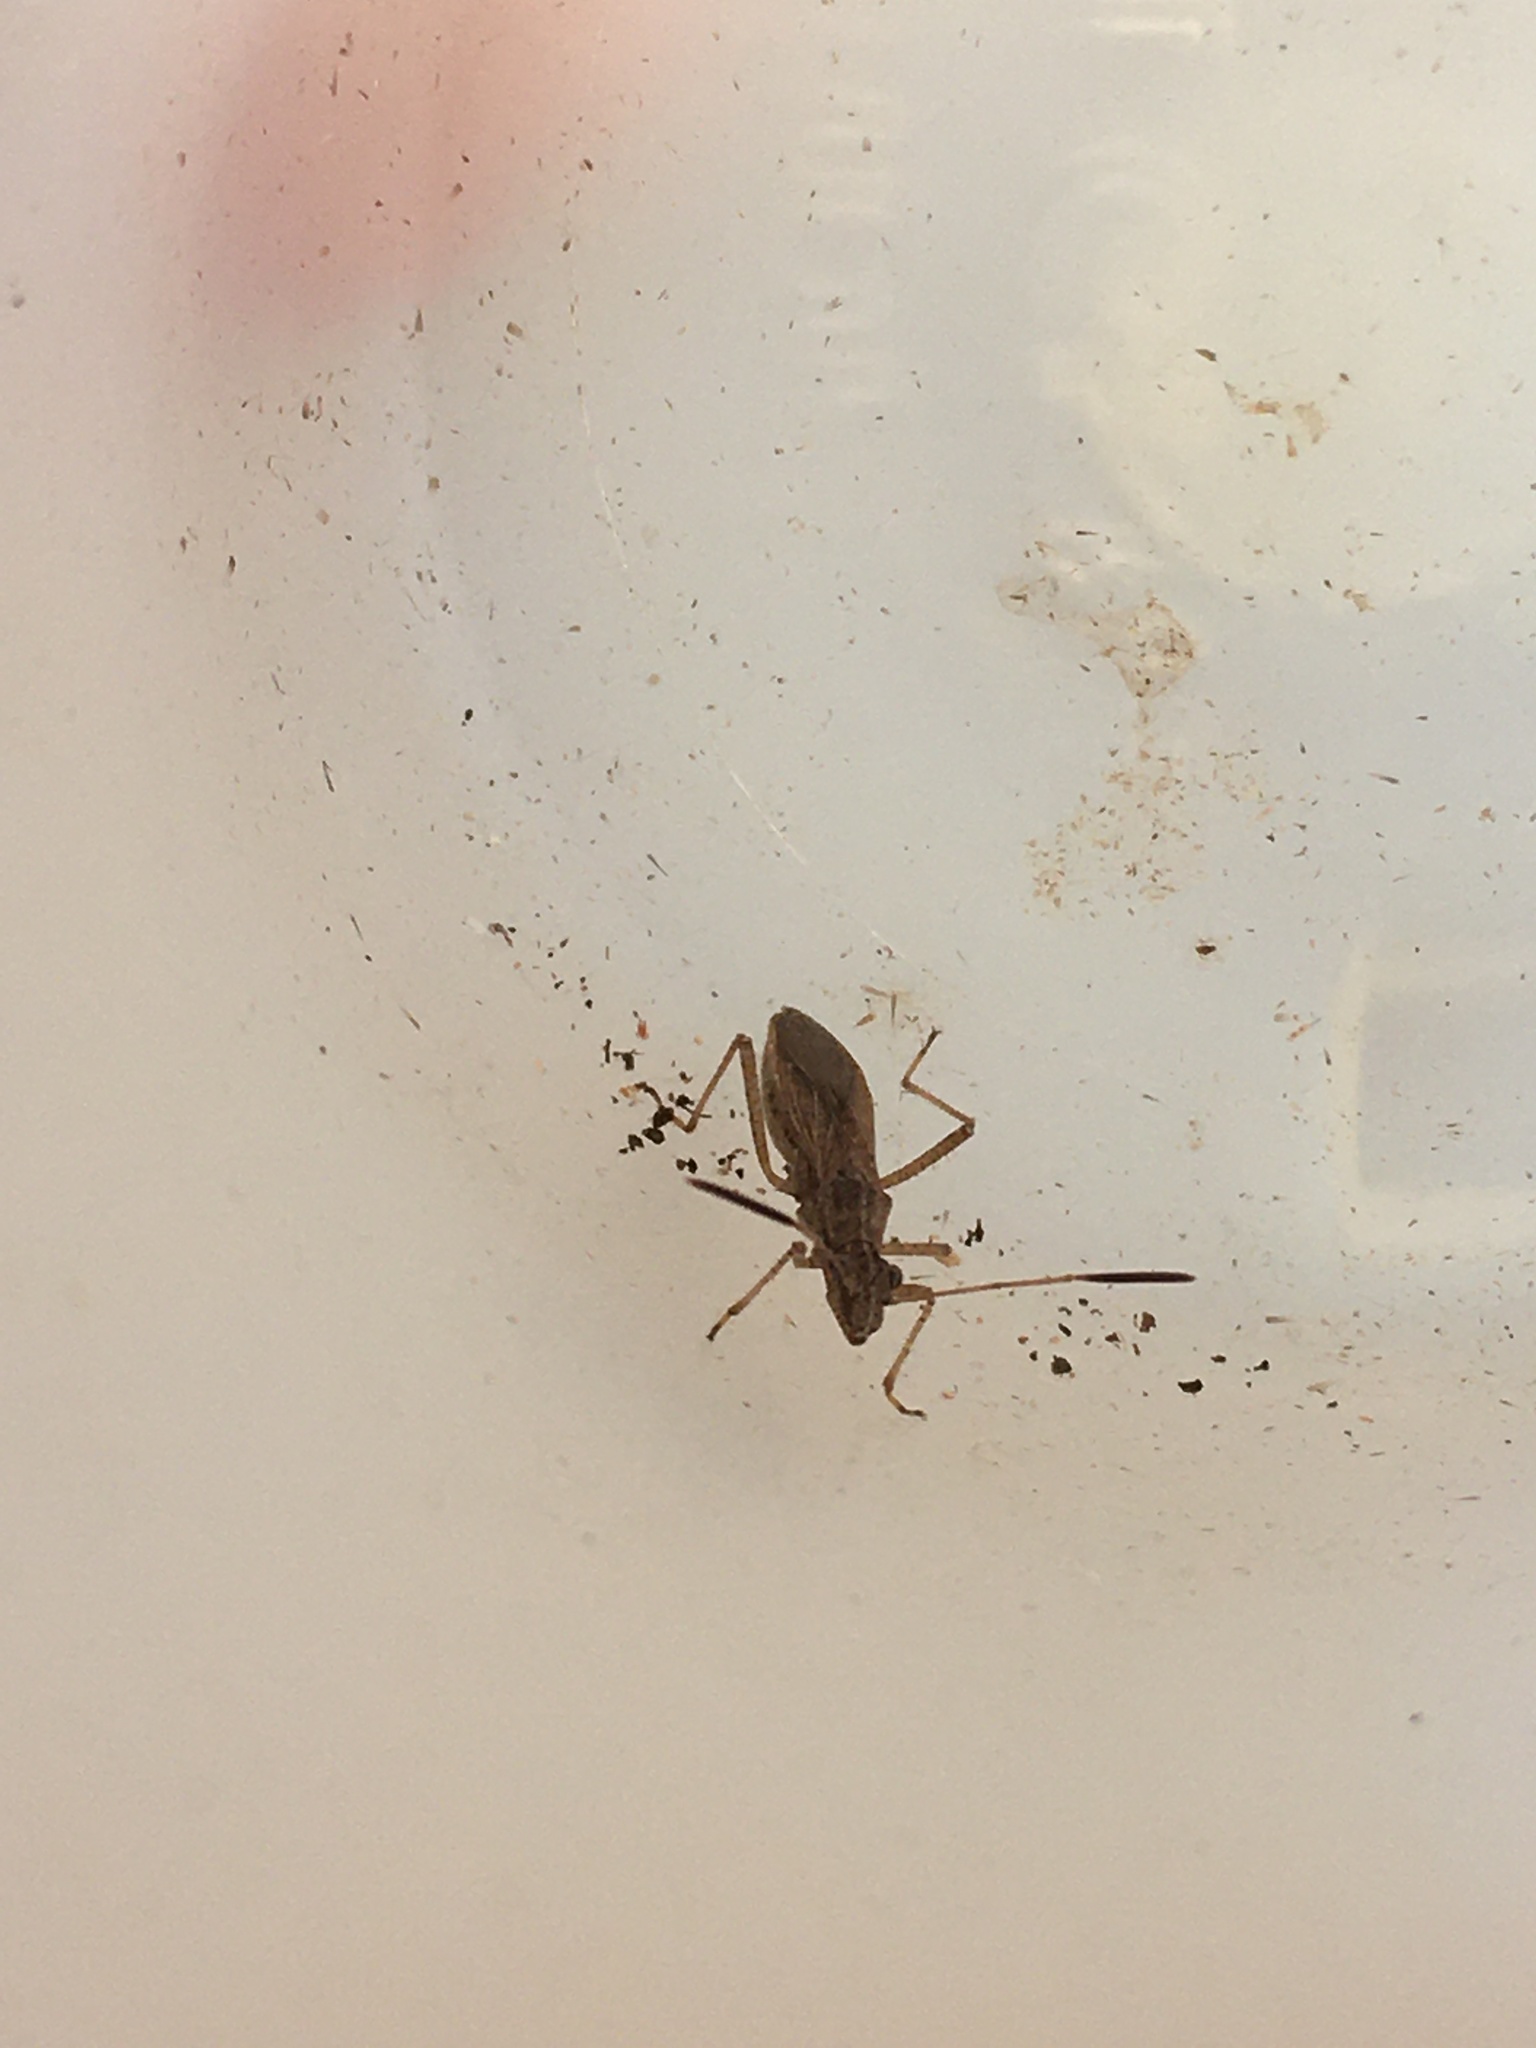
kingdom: Animalia
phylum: Arthropoda
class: Insecta
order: Hemiptera
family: Alydidae
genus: Esperanza
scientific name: Esperanza texana
